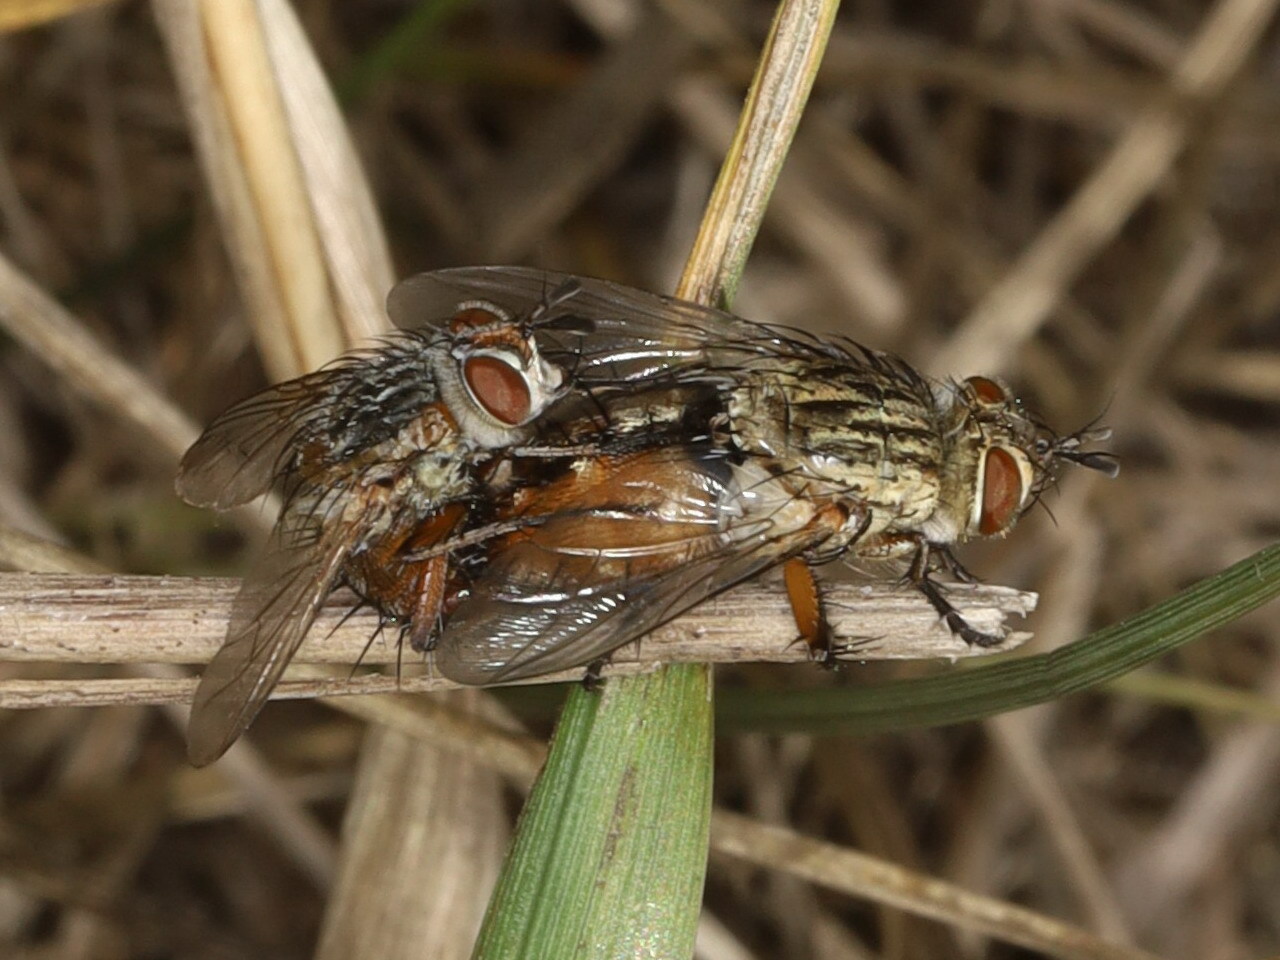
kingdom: Animalia
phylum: Arthropoda
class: Insecta
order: Diptera
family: Tachinidae
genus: Linnaemya
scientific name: Linnaemya vulpina
